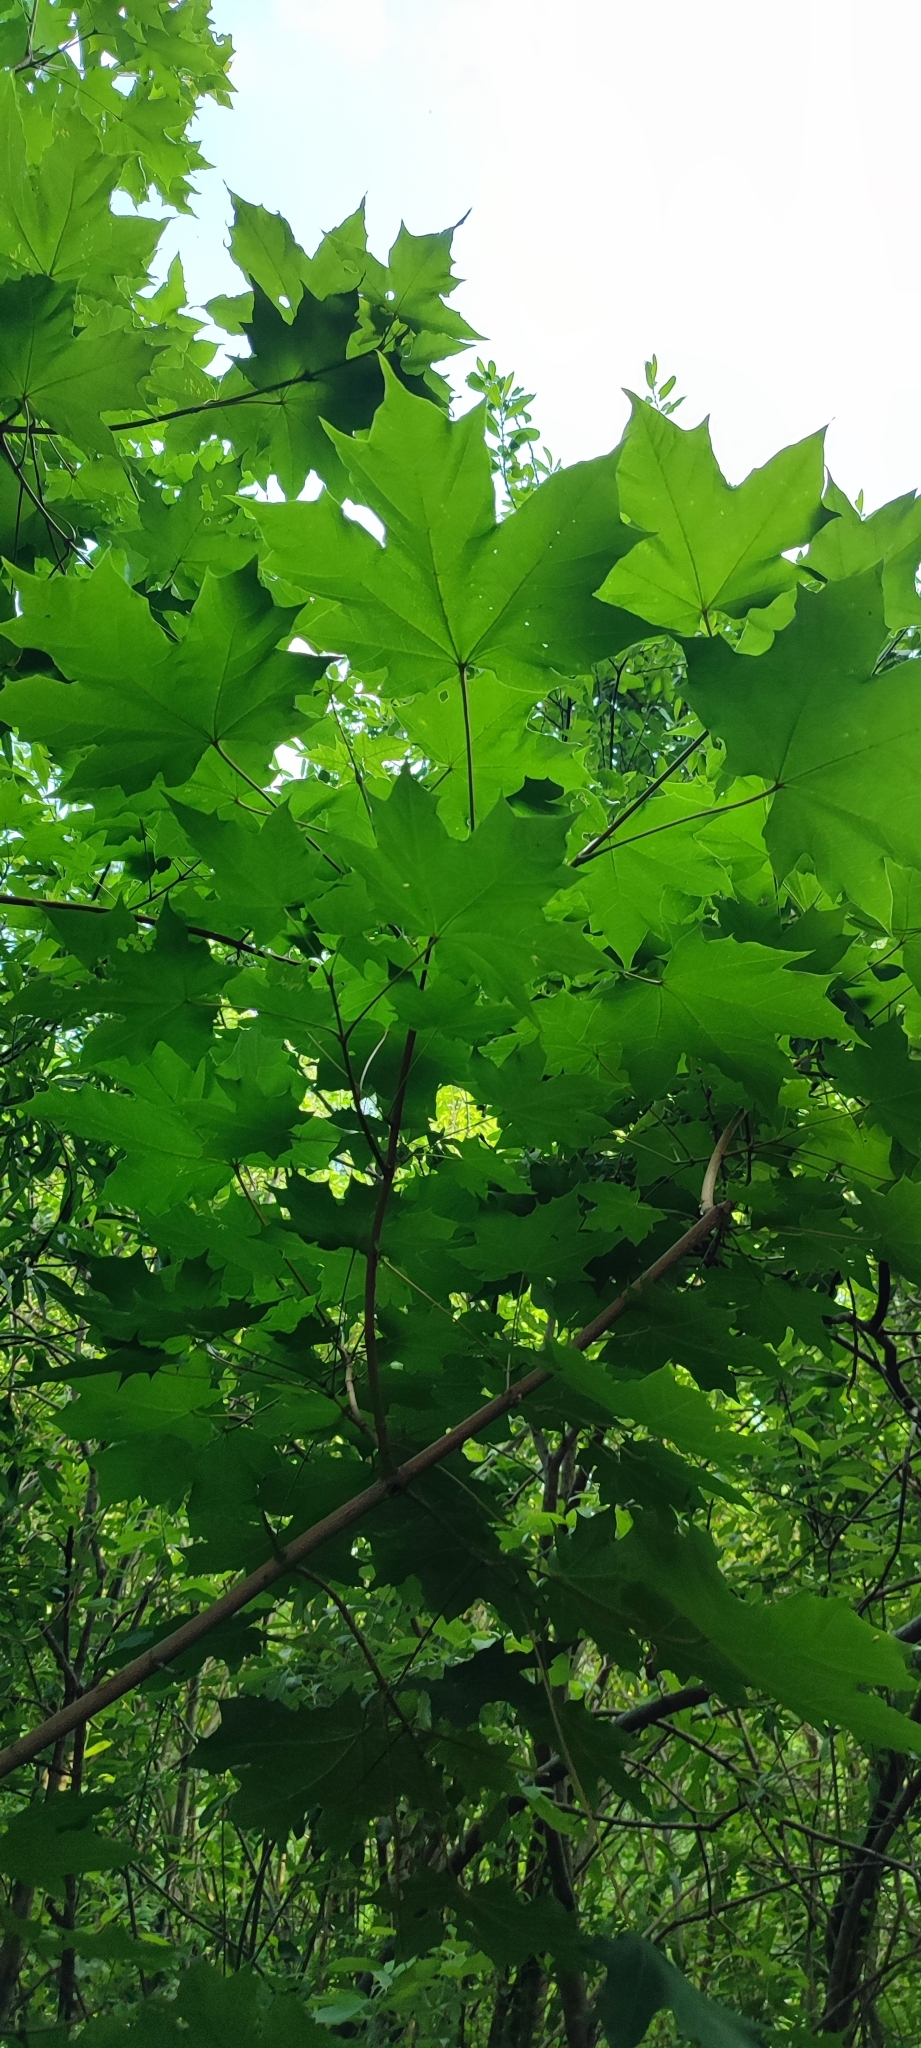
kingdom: Plantae
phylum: Tracheophyta
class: Magnoliopsida
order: Sapindales
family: Sapindaceae
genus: Acer
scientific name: Acer platanoides
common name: Norway maple
